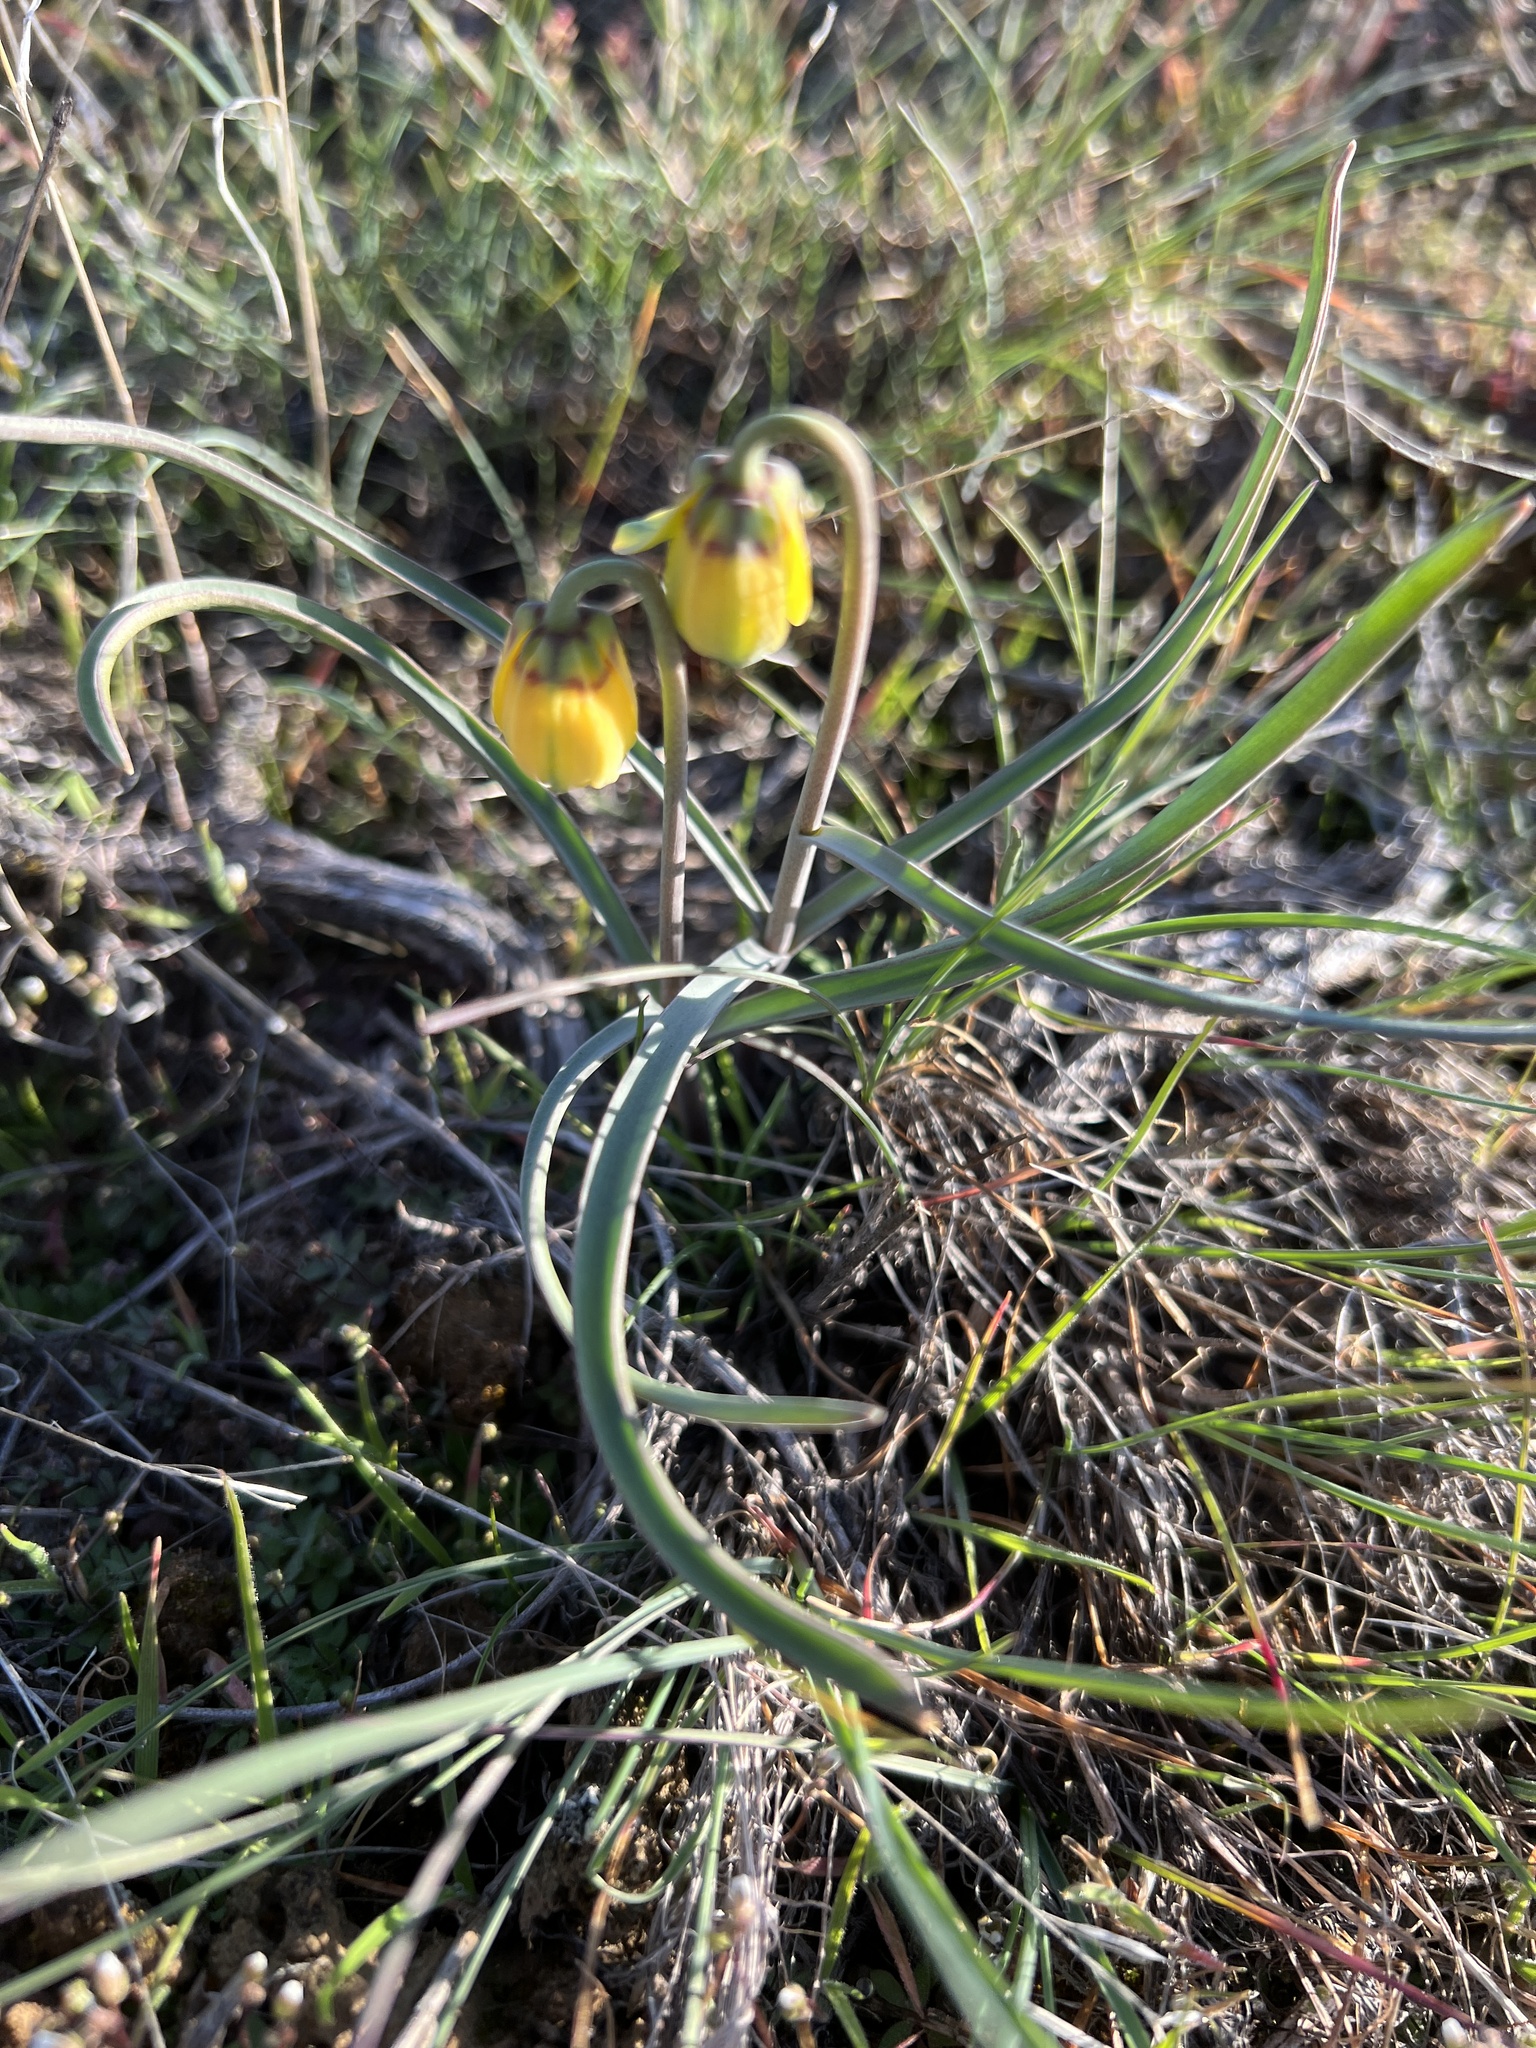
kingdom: Plantae
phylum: Tracheophyta
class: Liliopsida
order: Liliales
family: Liliaceae
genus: Fritillaria
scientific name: Fritillaria pudica
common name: Yellow fritillary
